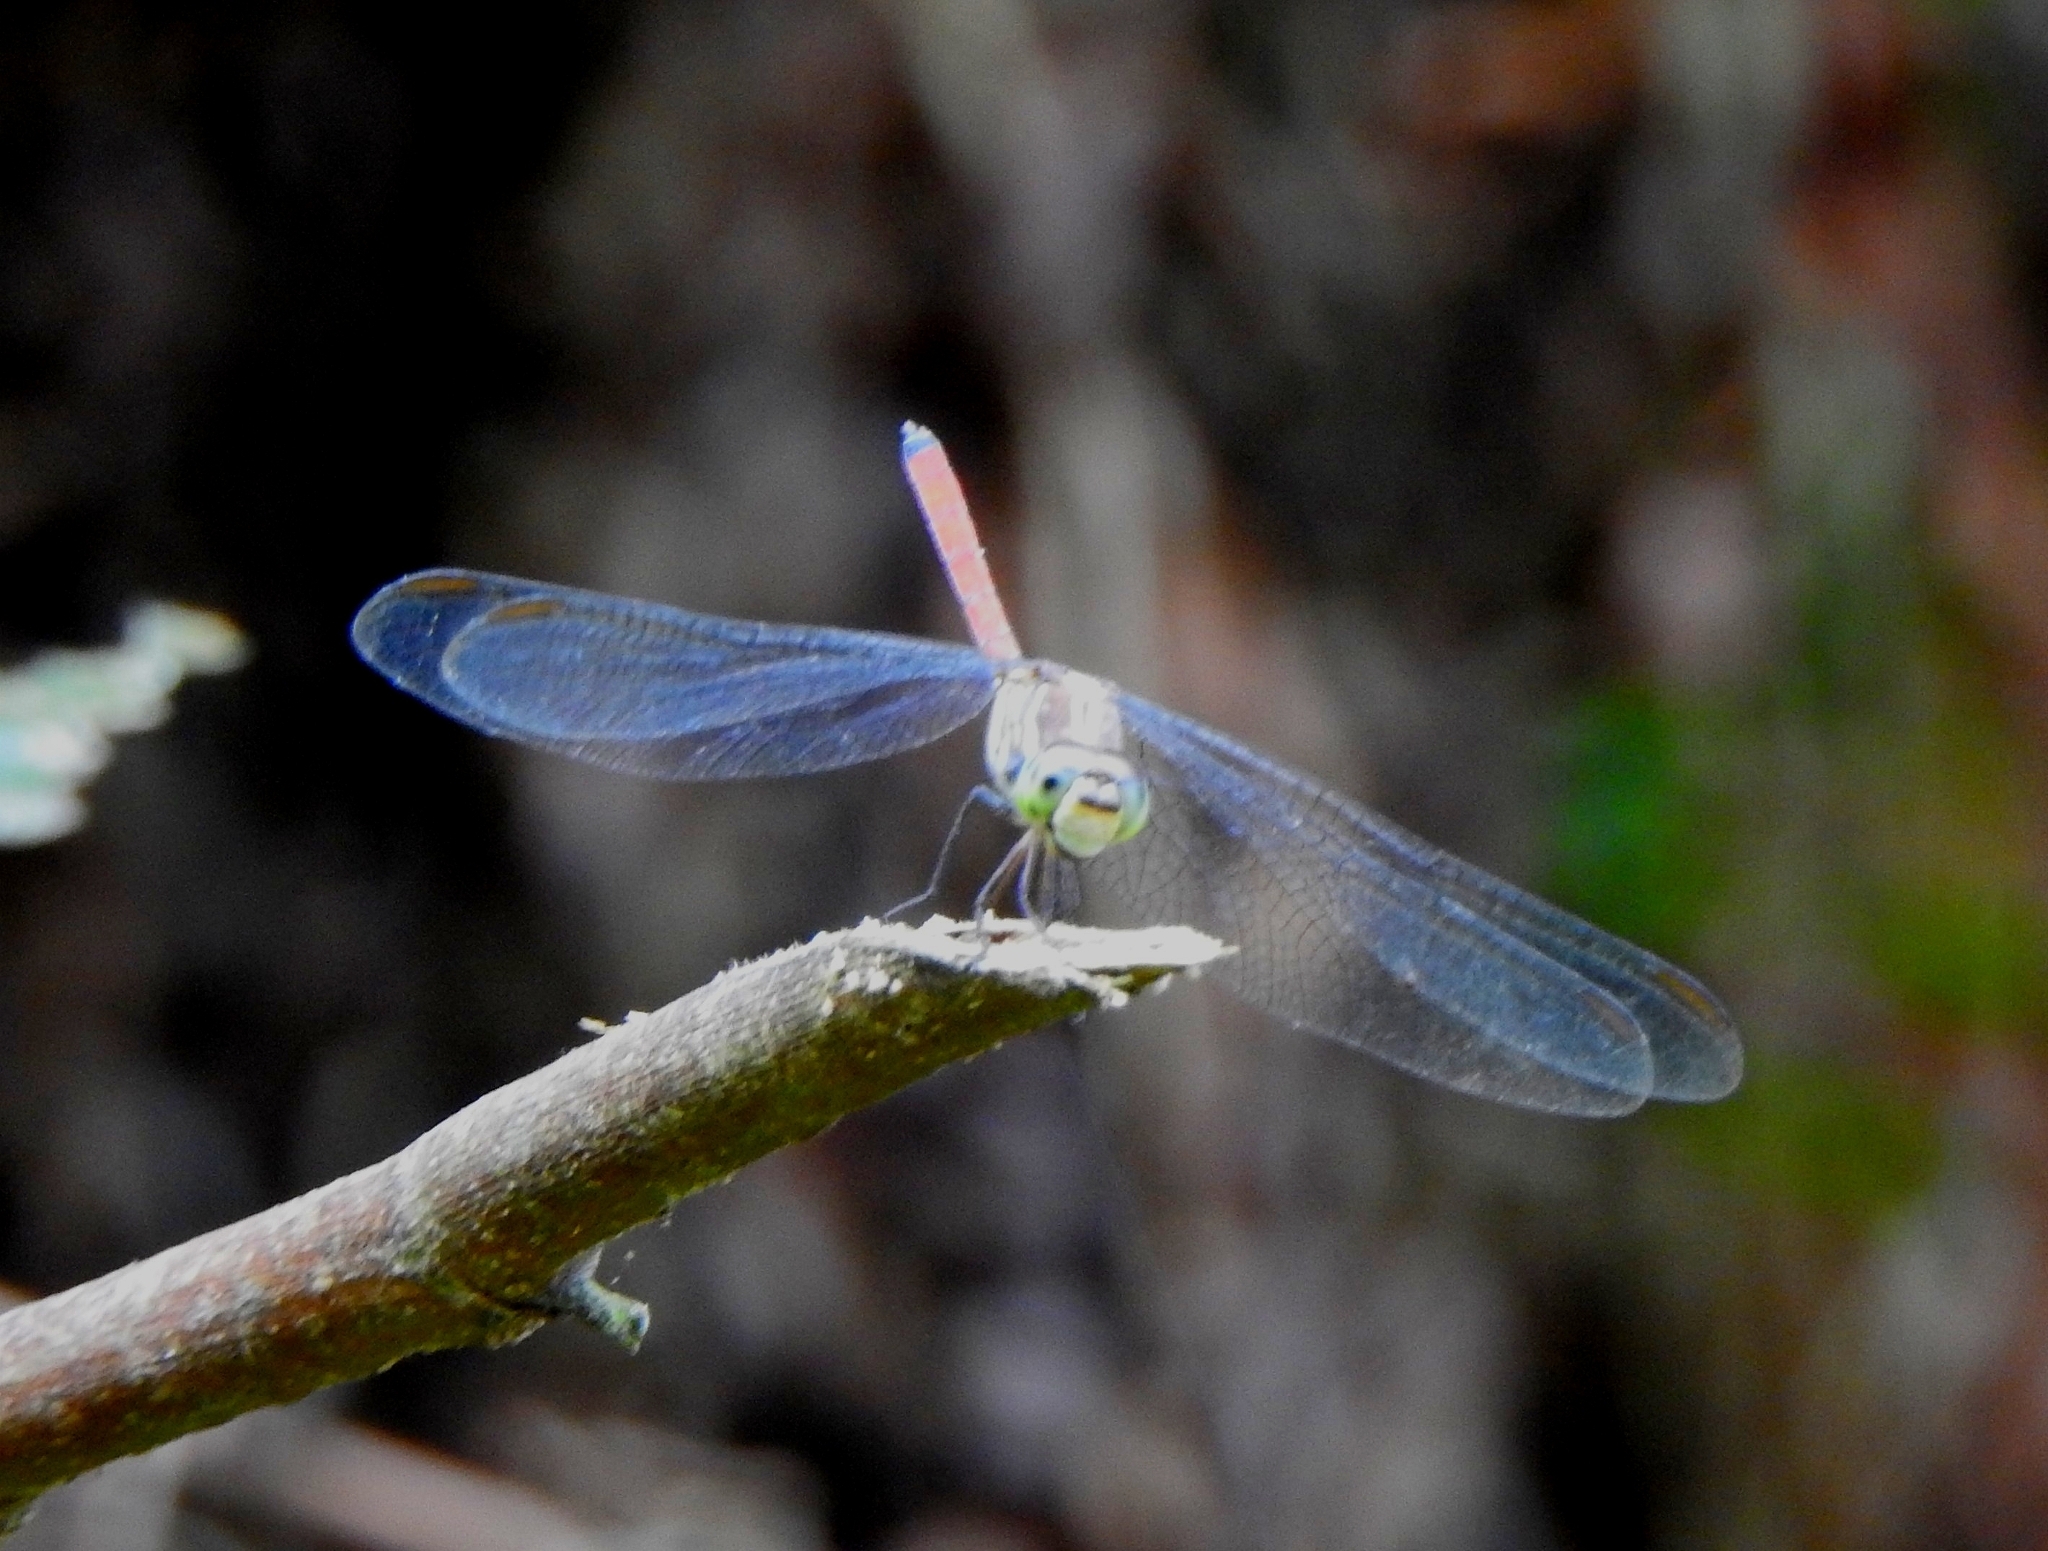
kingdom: Animalia
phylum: Arthropoda
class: Insecta
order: Odonata
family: Libellulidae
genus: Lathrecista
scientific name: Lathrecista asiatica
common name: Scarlet grenadier
